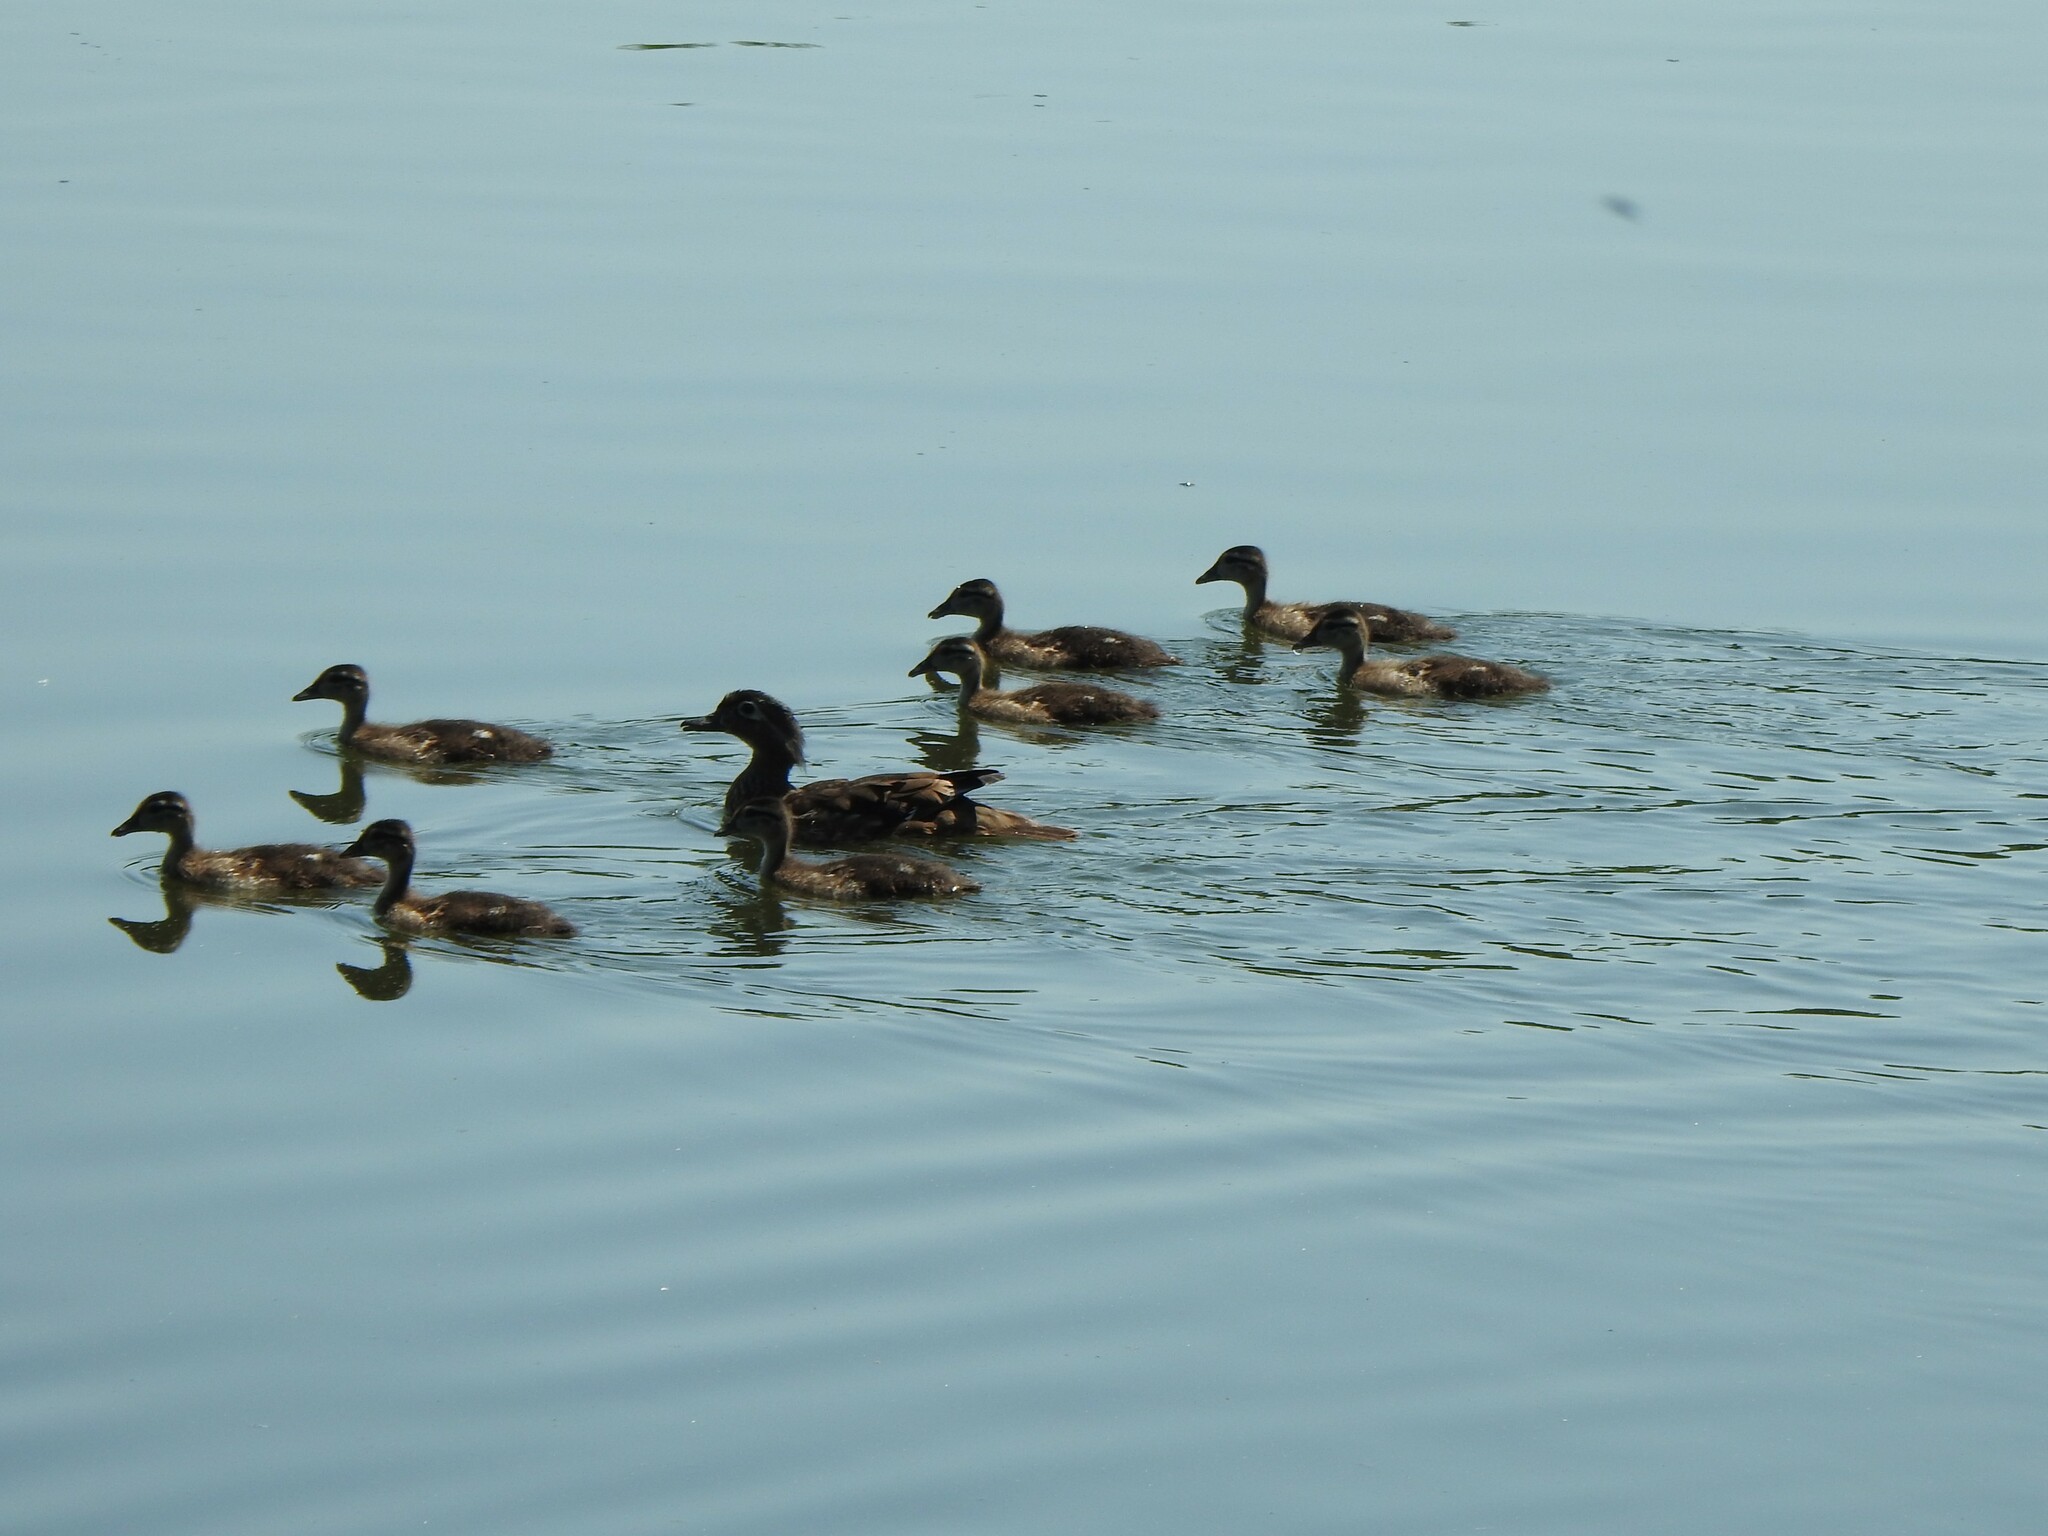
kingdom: Animalia
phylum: Chordata
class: Aves
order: Anseriformes
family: Anatidae
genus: Aix
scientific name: Aix sponsa
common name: Wood duck
